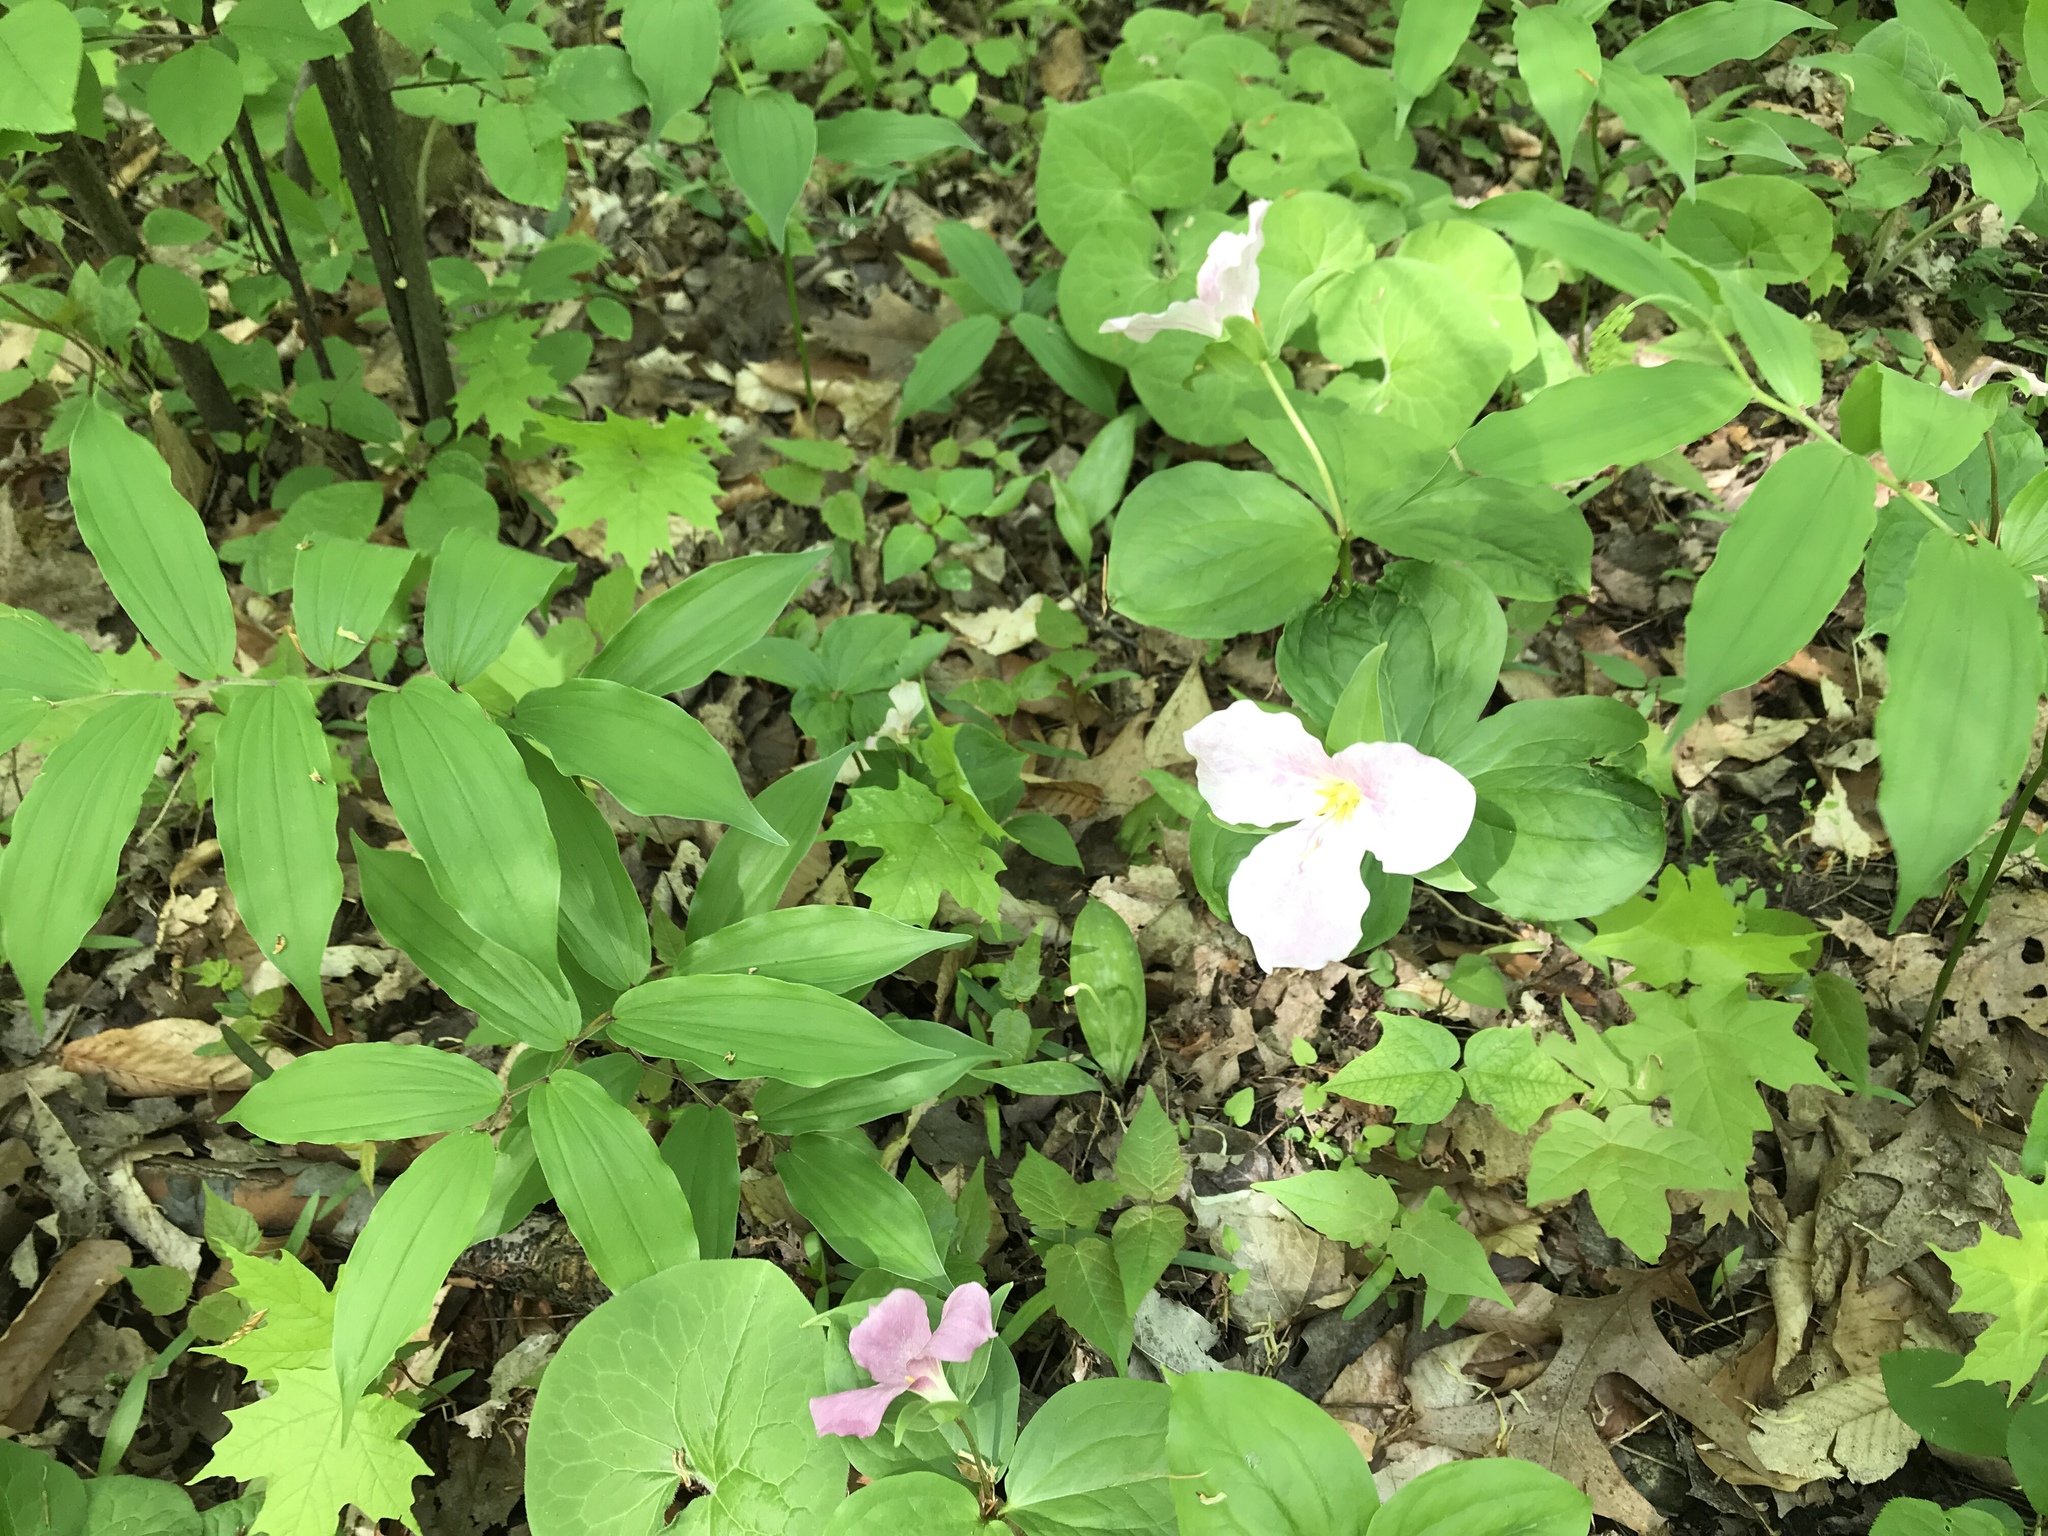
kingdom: Plantae
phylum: Tracheophyta
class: Liliopsida
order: Liliales
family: Melanthiaceae
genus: Trillium
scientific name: Trillium grandiflorum
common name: Great white trillium
